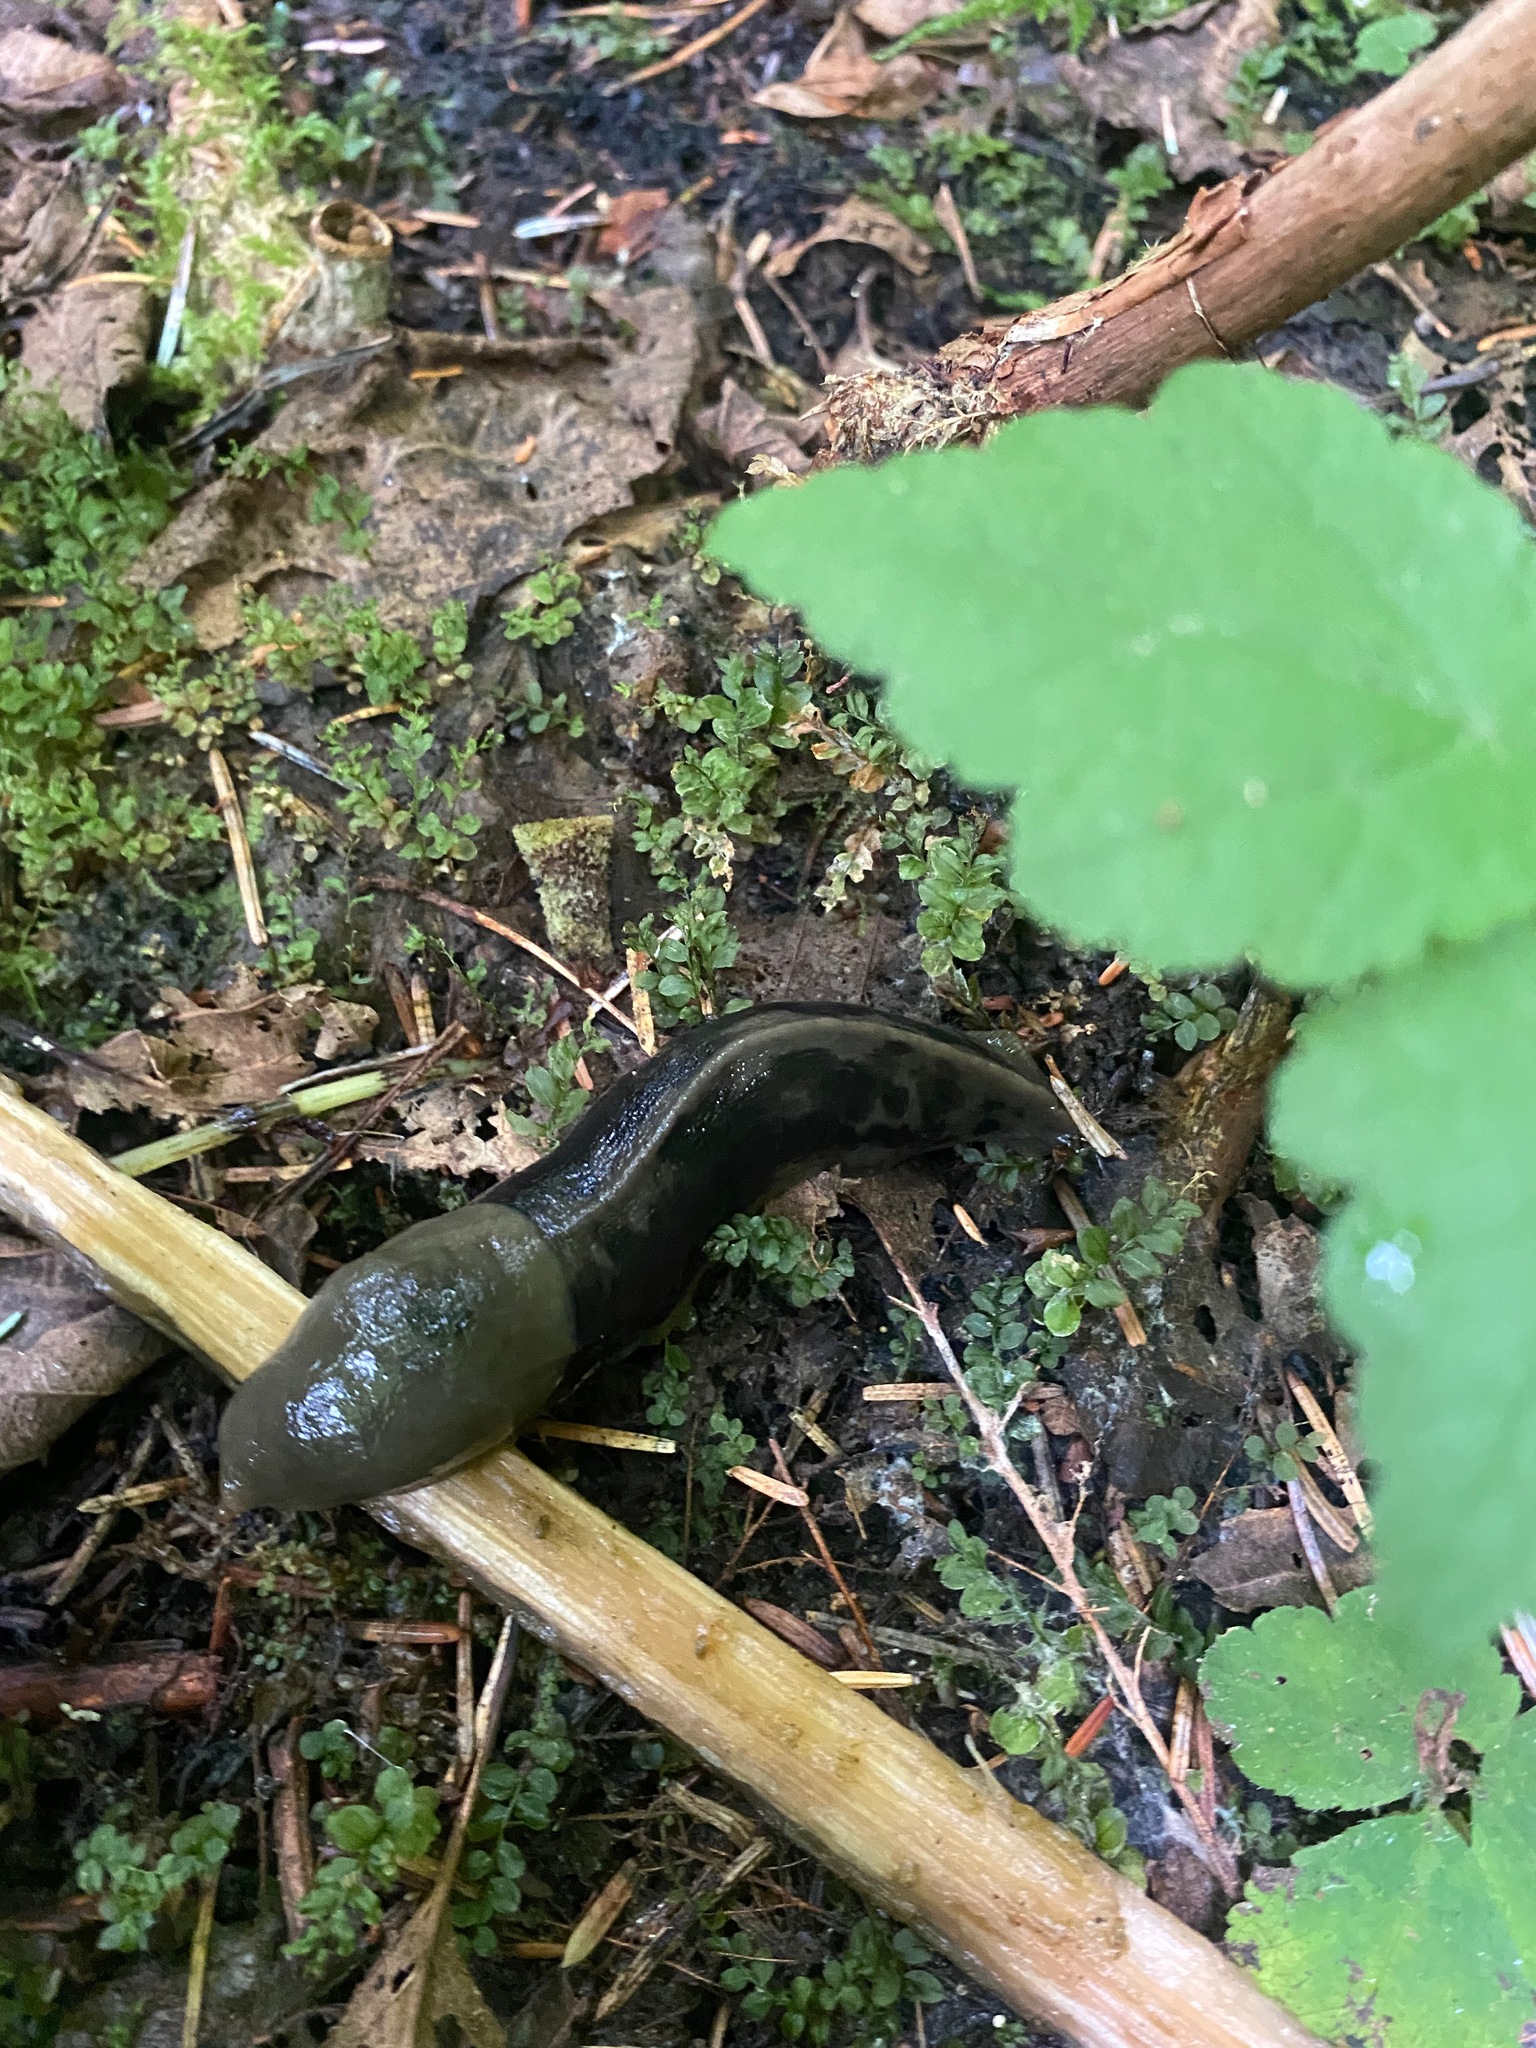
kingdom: Animalia
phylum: Mollusca
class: Gastropoda
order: Stylommatophora
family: Ariolimacidae
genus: Ariolimax
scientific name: Ariolimax columbianus
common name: Pacific banana slug
